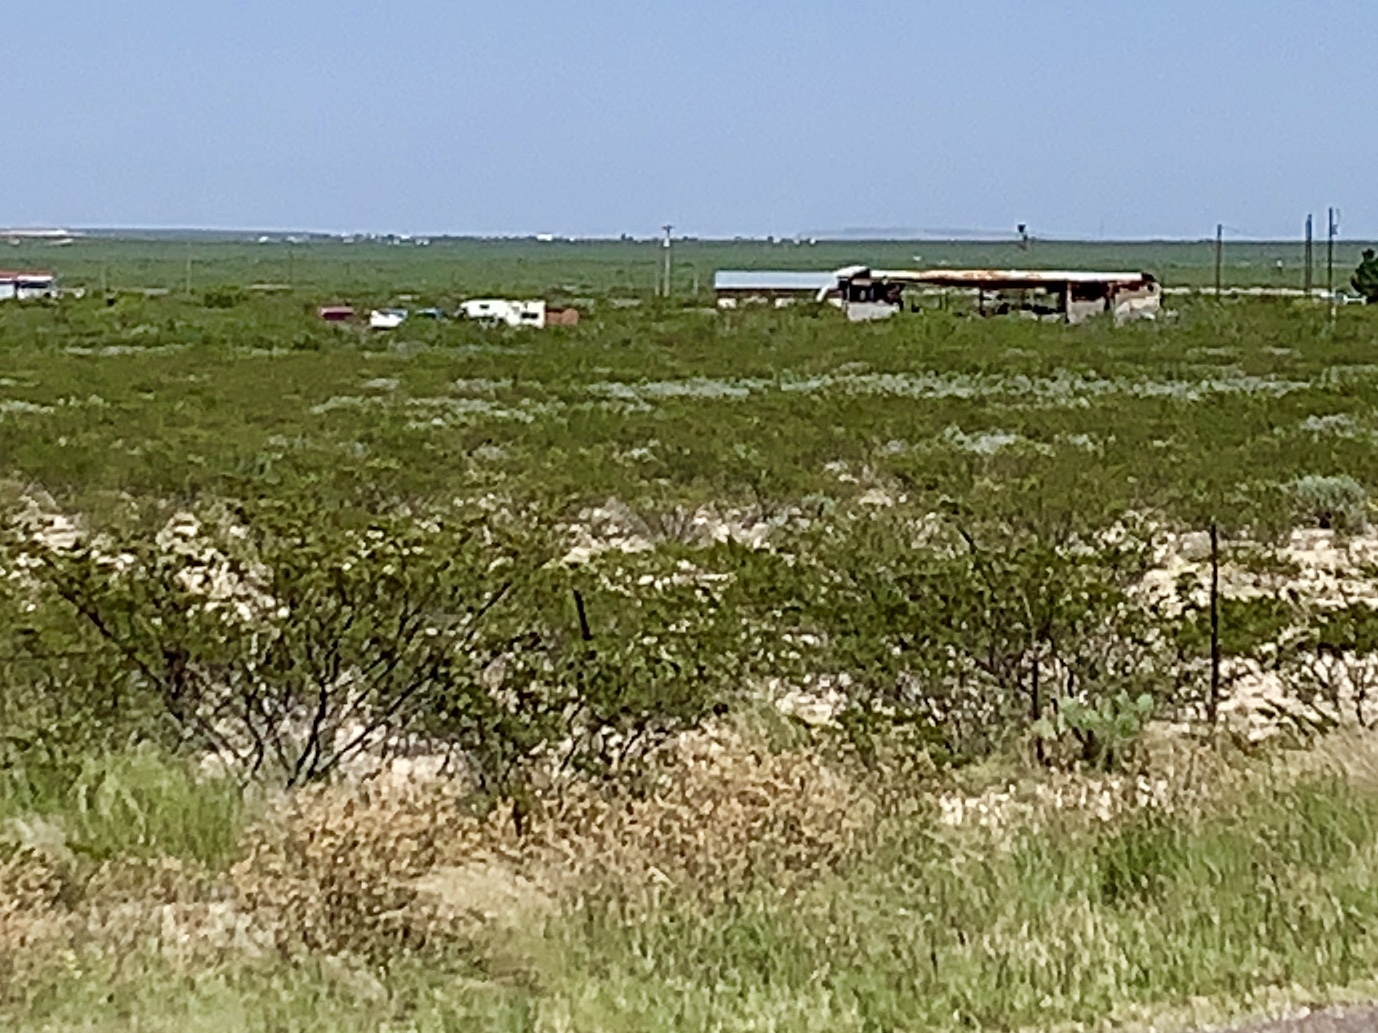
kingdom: Plantae
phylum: Tracheophyta
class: Magnoliopsida
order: Zygophyllales
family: Zygophyllaceae
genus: Larrea
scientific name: Larrea tridentata
